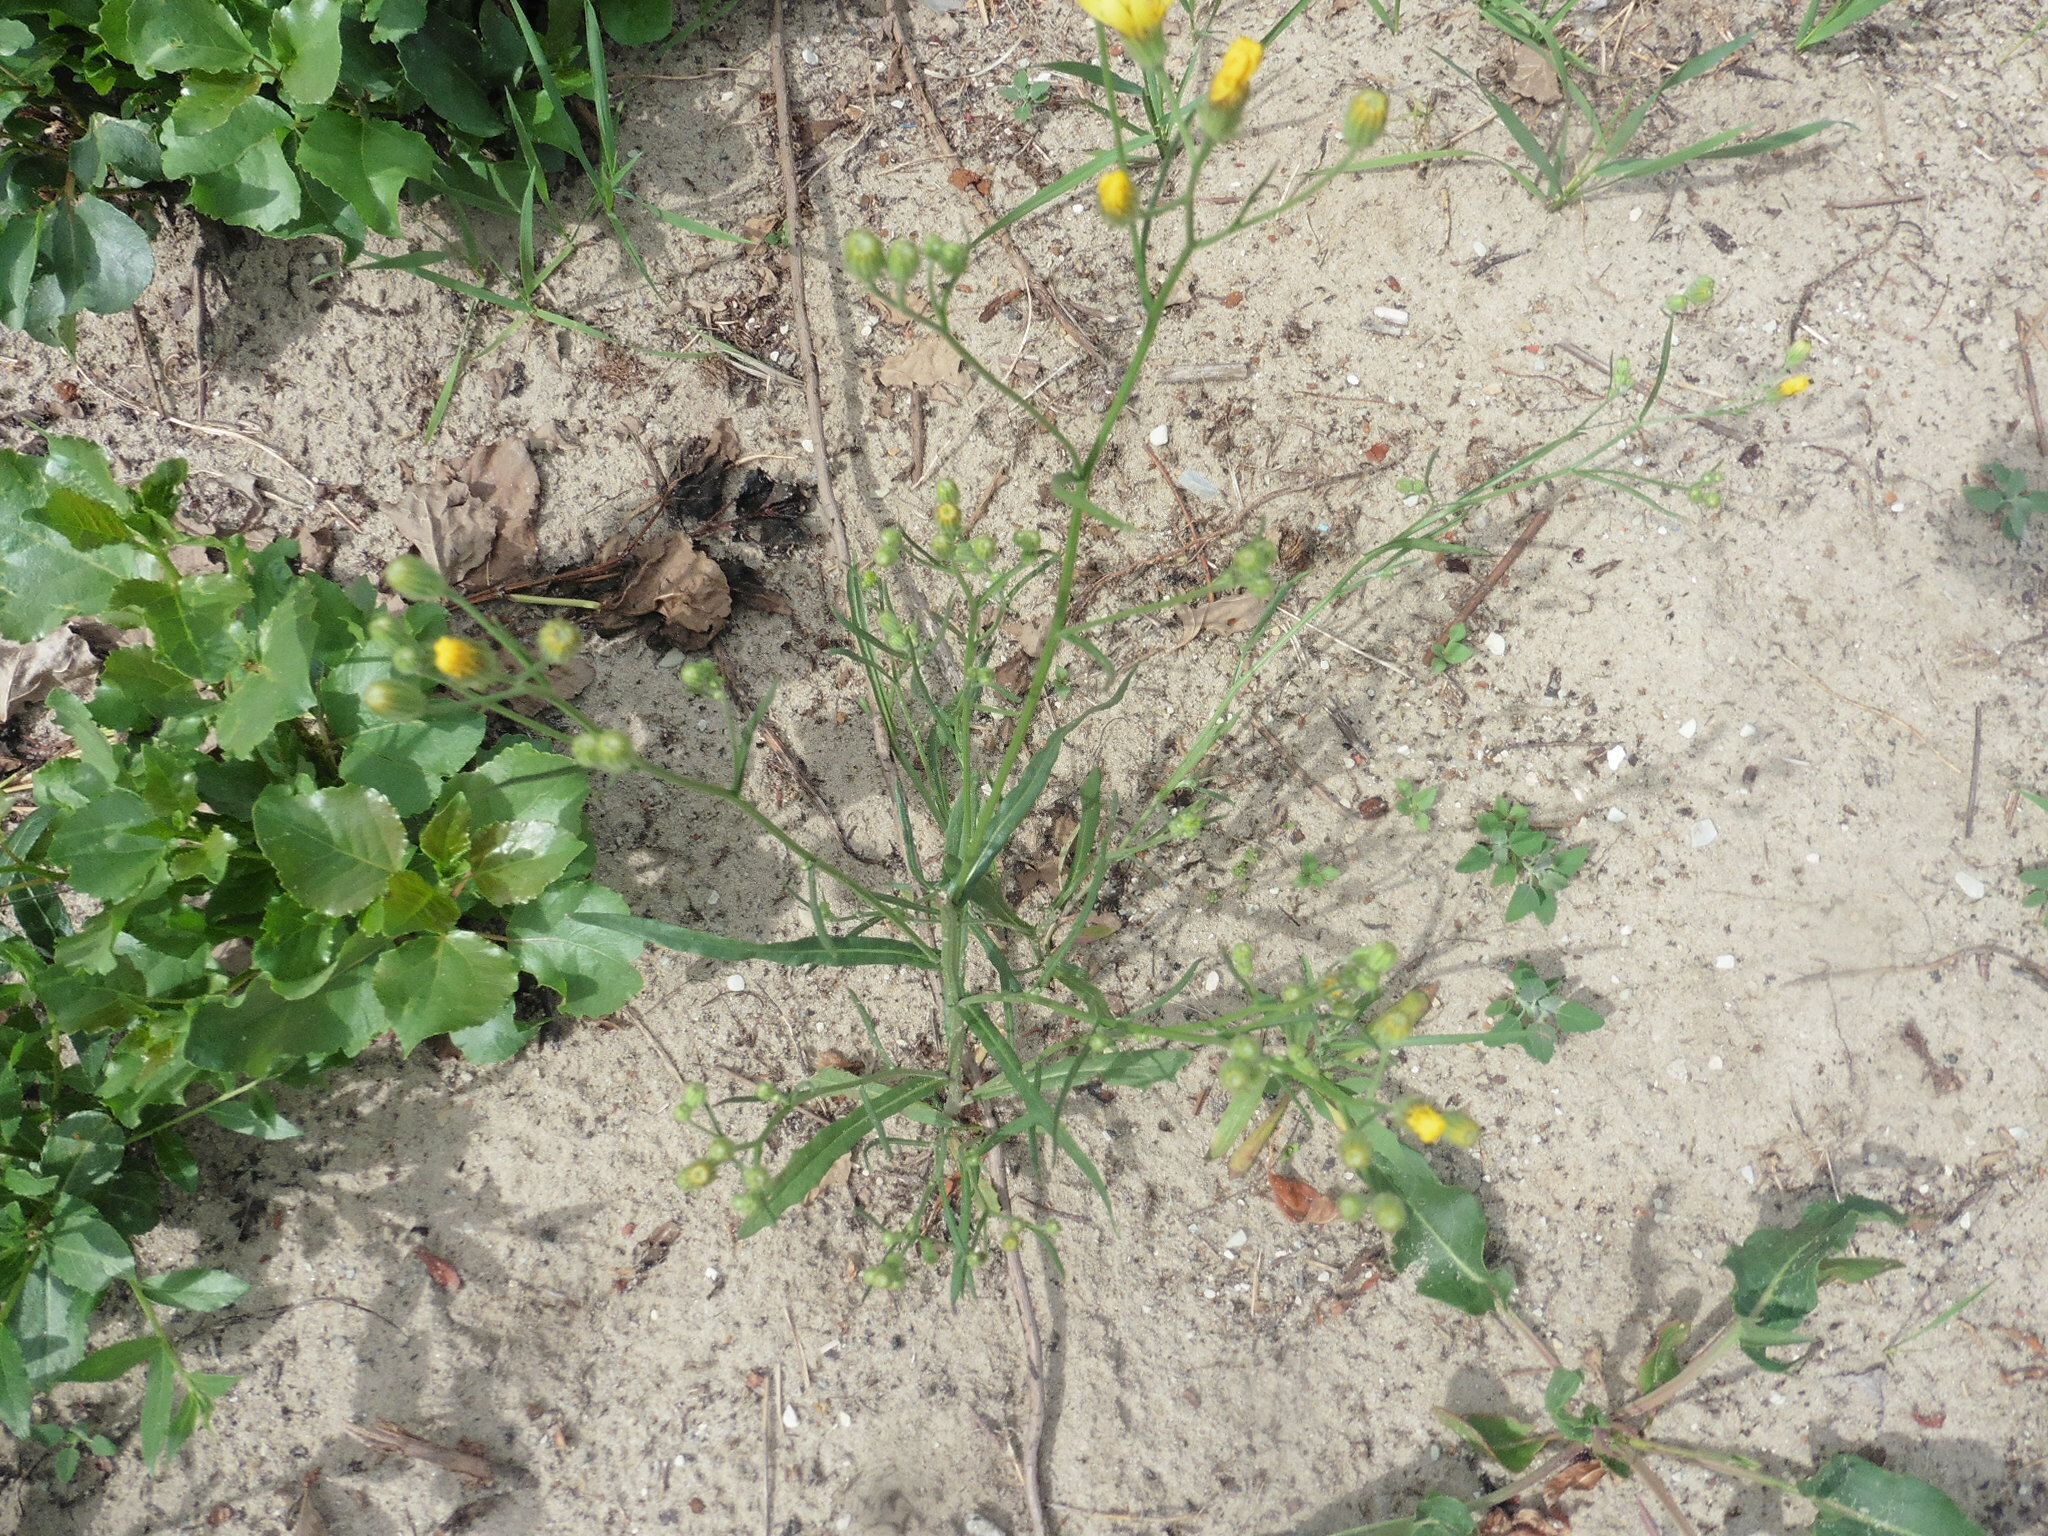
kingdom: Plantae
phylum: Tracheophyta
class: Magnoliopsida
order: Asterales
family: Asteraceae
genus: Crepis
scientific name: Crepis tectorum
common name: Narrow-leaved hawk's-beard
